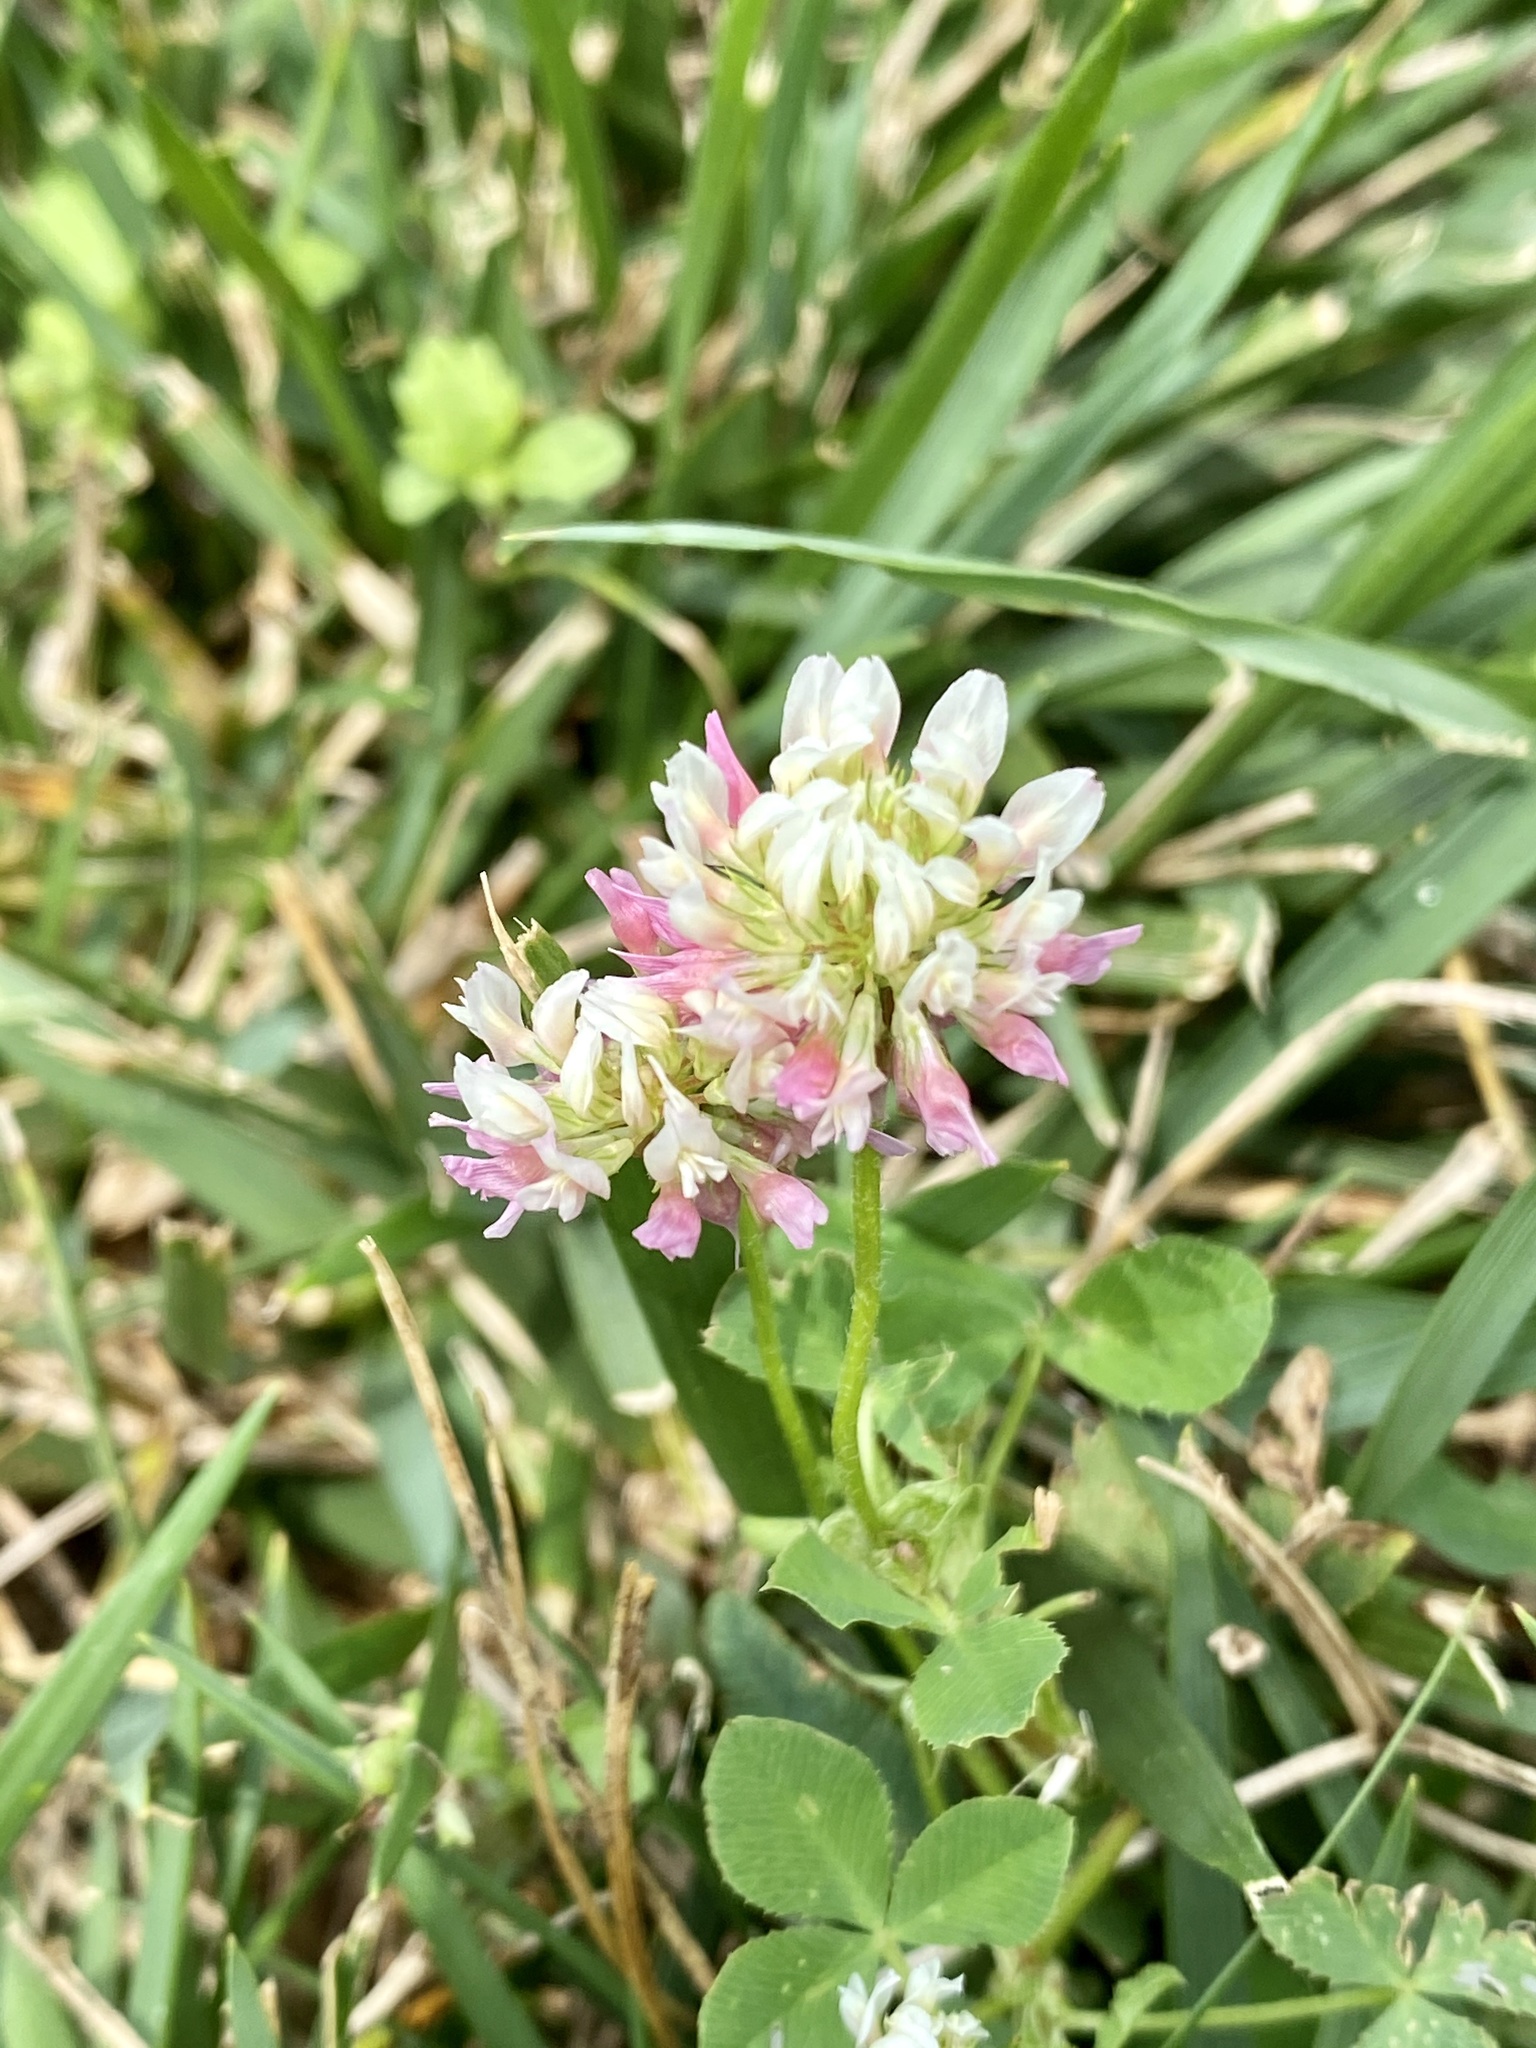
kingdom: Plantae
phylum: Tracheophyta
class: Magnoliopsida
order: Fabales
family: Fabaceae
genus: Trifolium
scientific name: Trifolium hybridum
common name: Alsike clover
